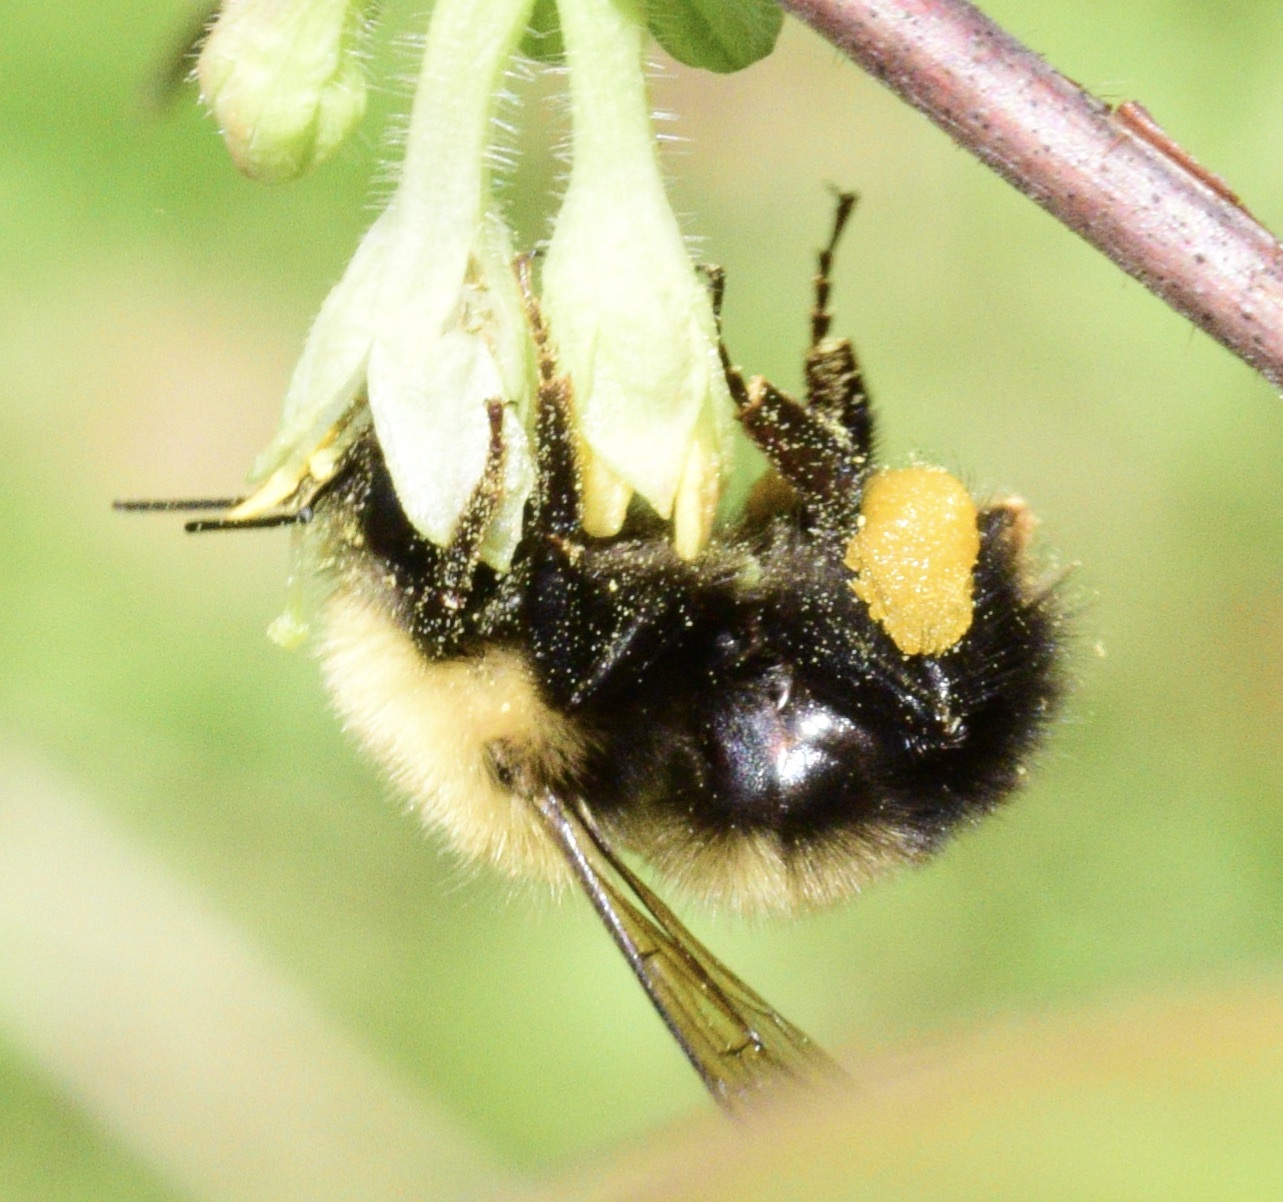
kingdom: Animalia
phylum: Arthropoda
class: Insecta
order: Hymenoptera
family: Apidae
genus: Bombus
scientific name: Bombus perplexus
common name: Confusing bumble bee
